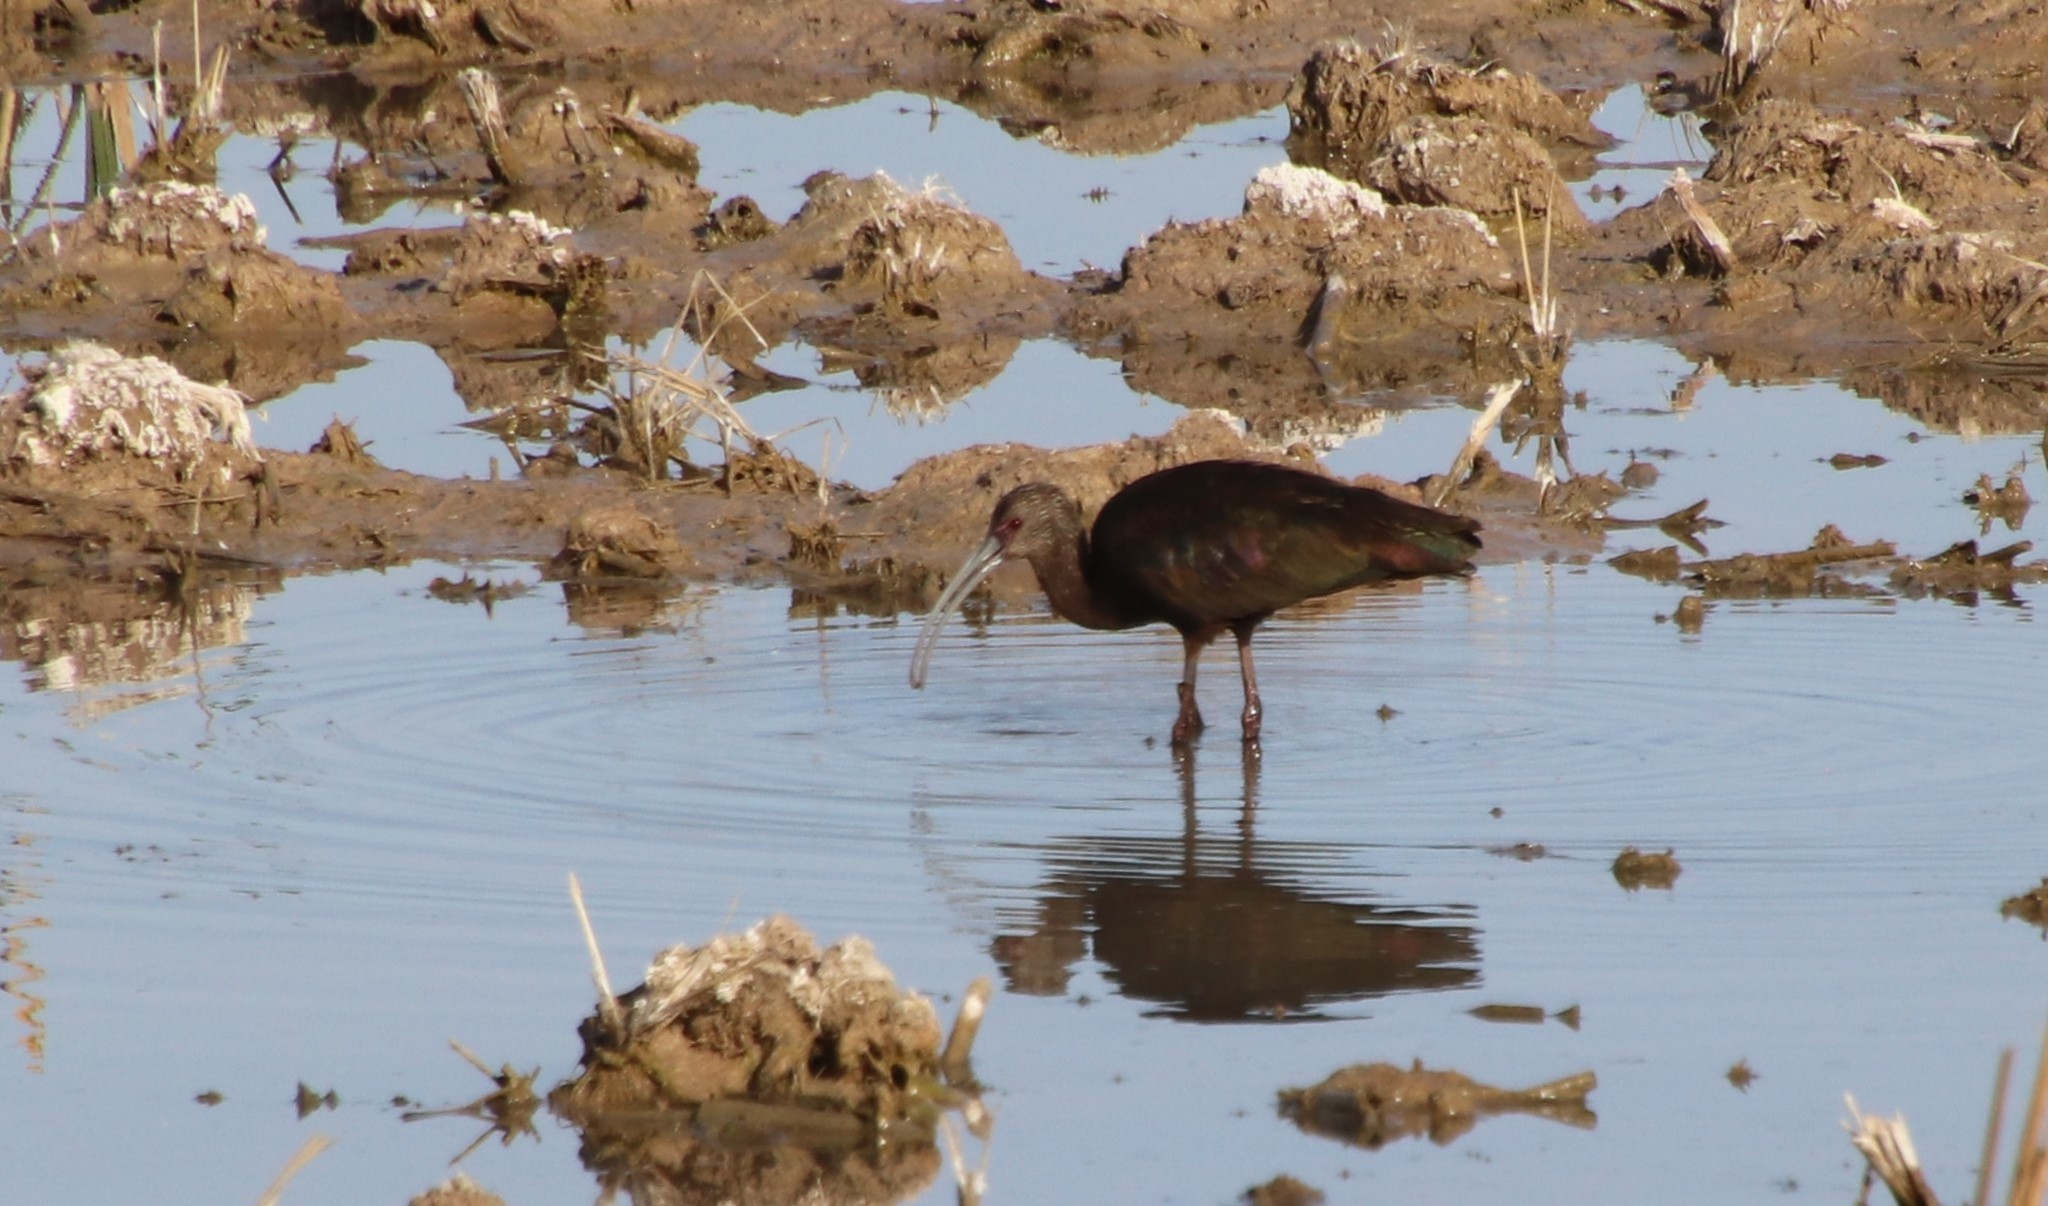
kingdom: Animalia
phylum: Chordata
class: Aves
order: Pelecaniformes
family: Threskiornithidae
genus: Plegadis
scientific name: Plegadis chihi
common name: White-faced ibis
